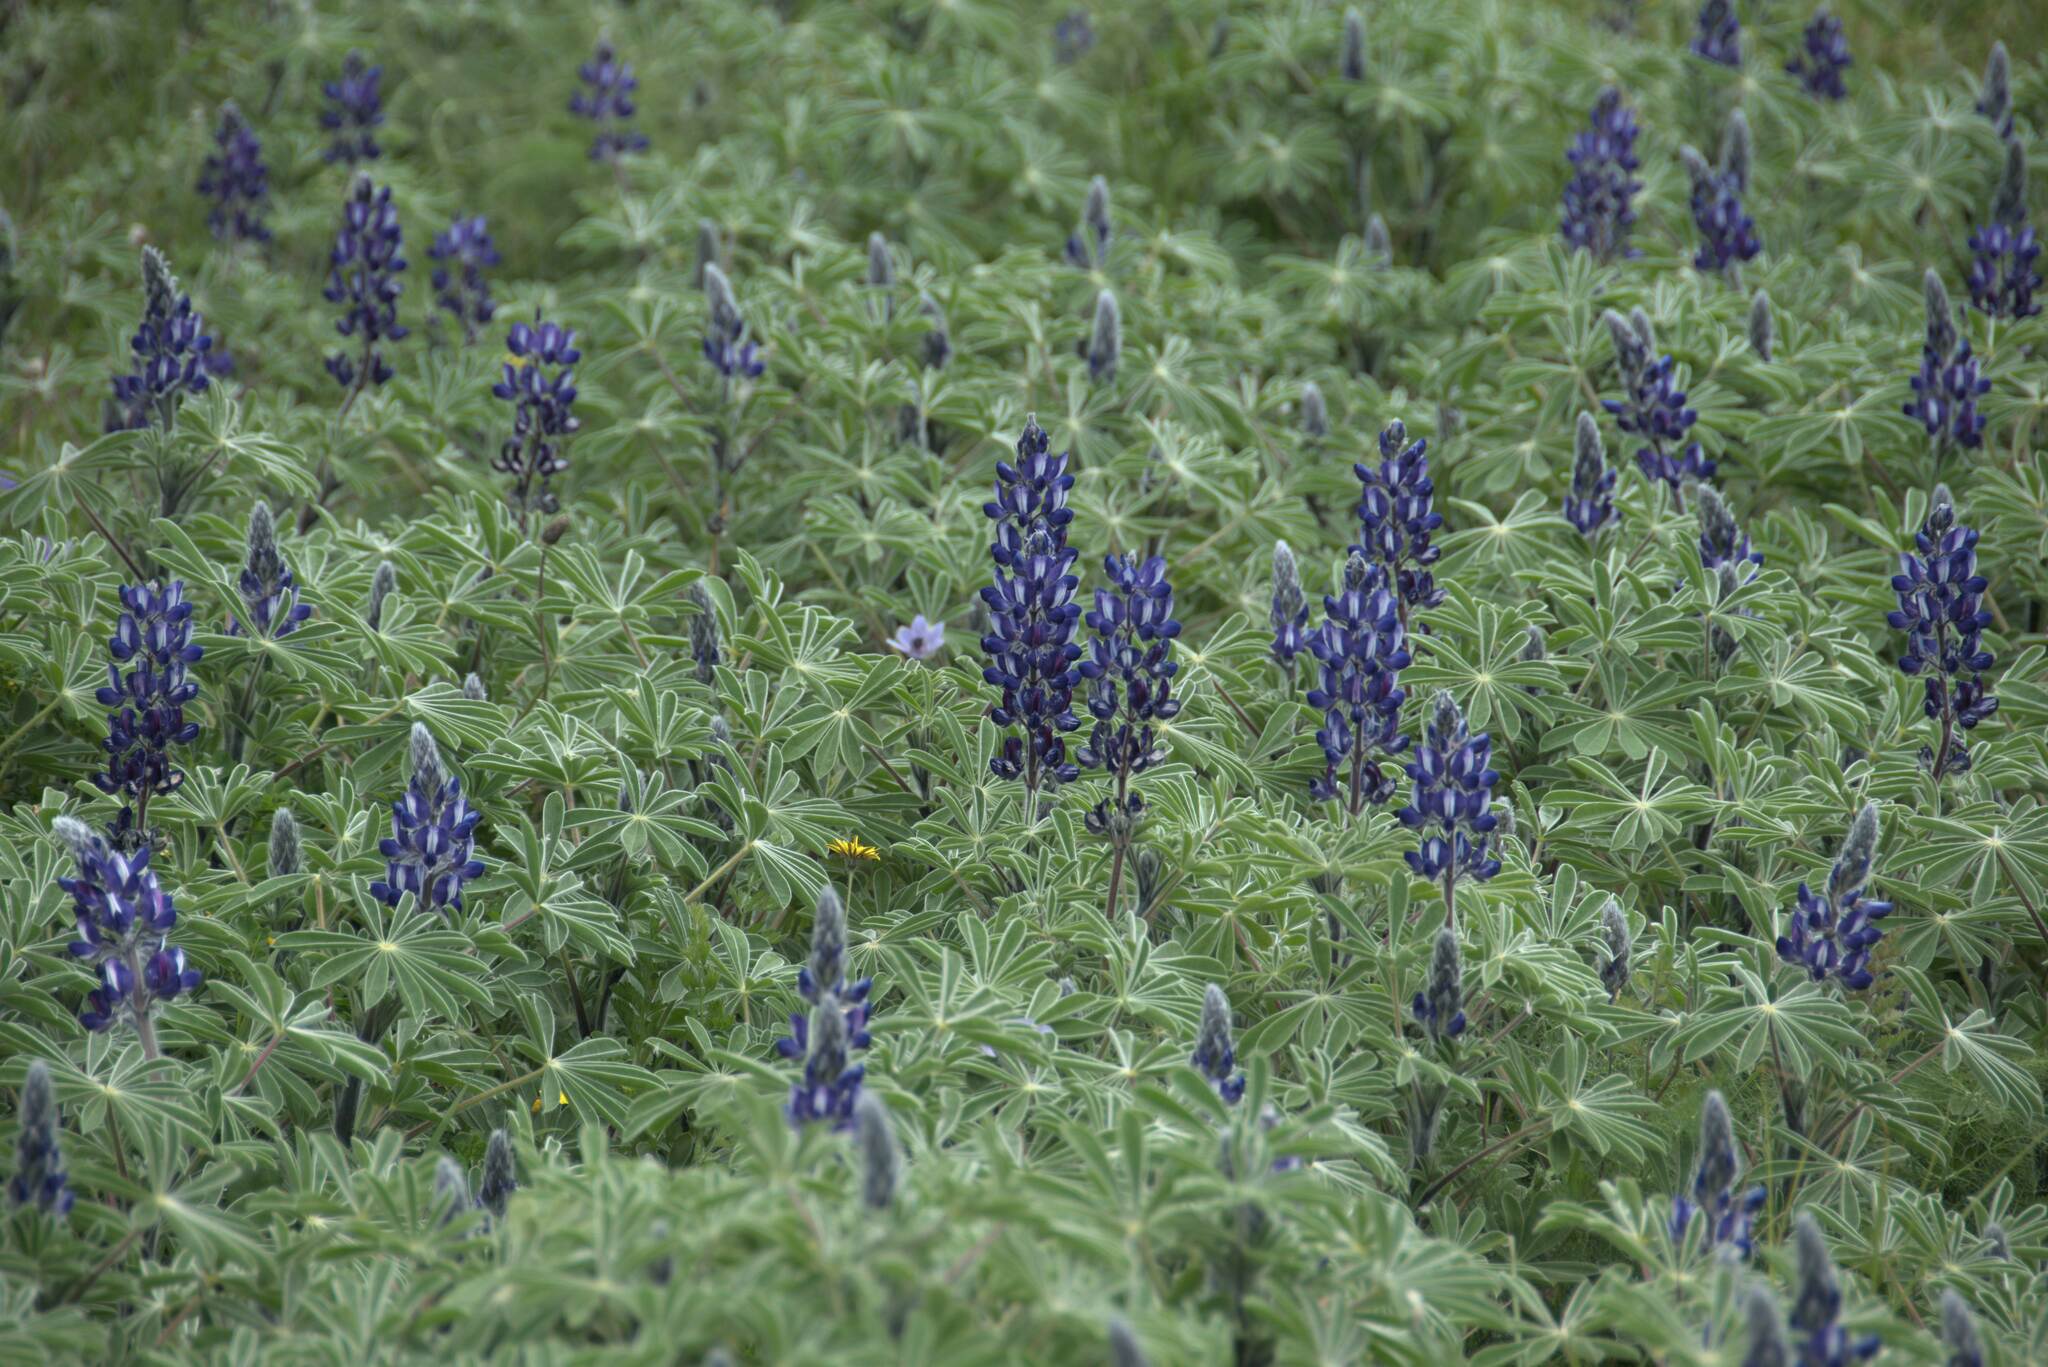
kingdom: Plantae
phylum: Tracheophyta
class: Magnoliopsida
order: Fabales
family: Fabaceae
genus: Lupinus
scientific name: Lupinus pilosus
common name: Blue lupine
